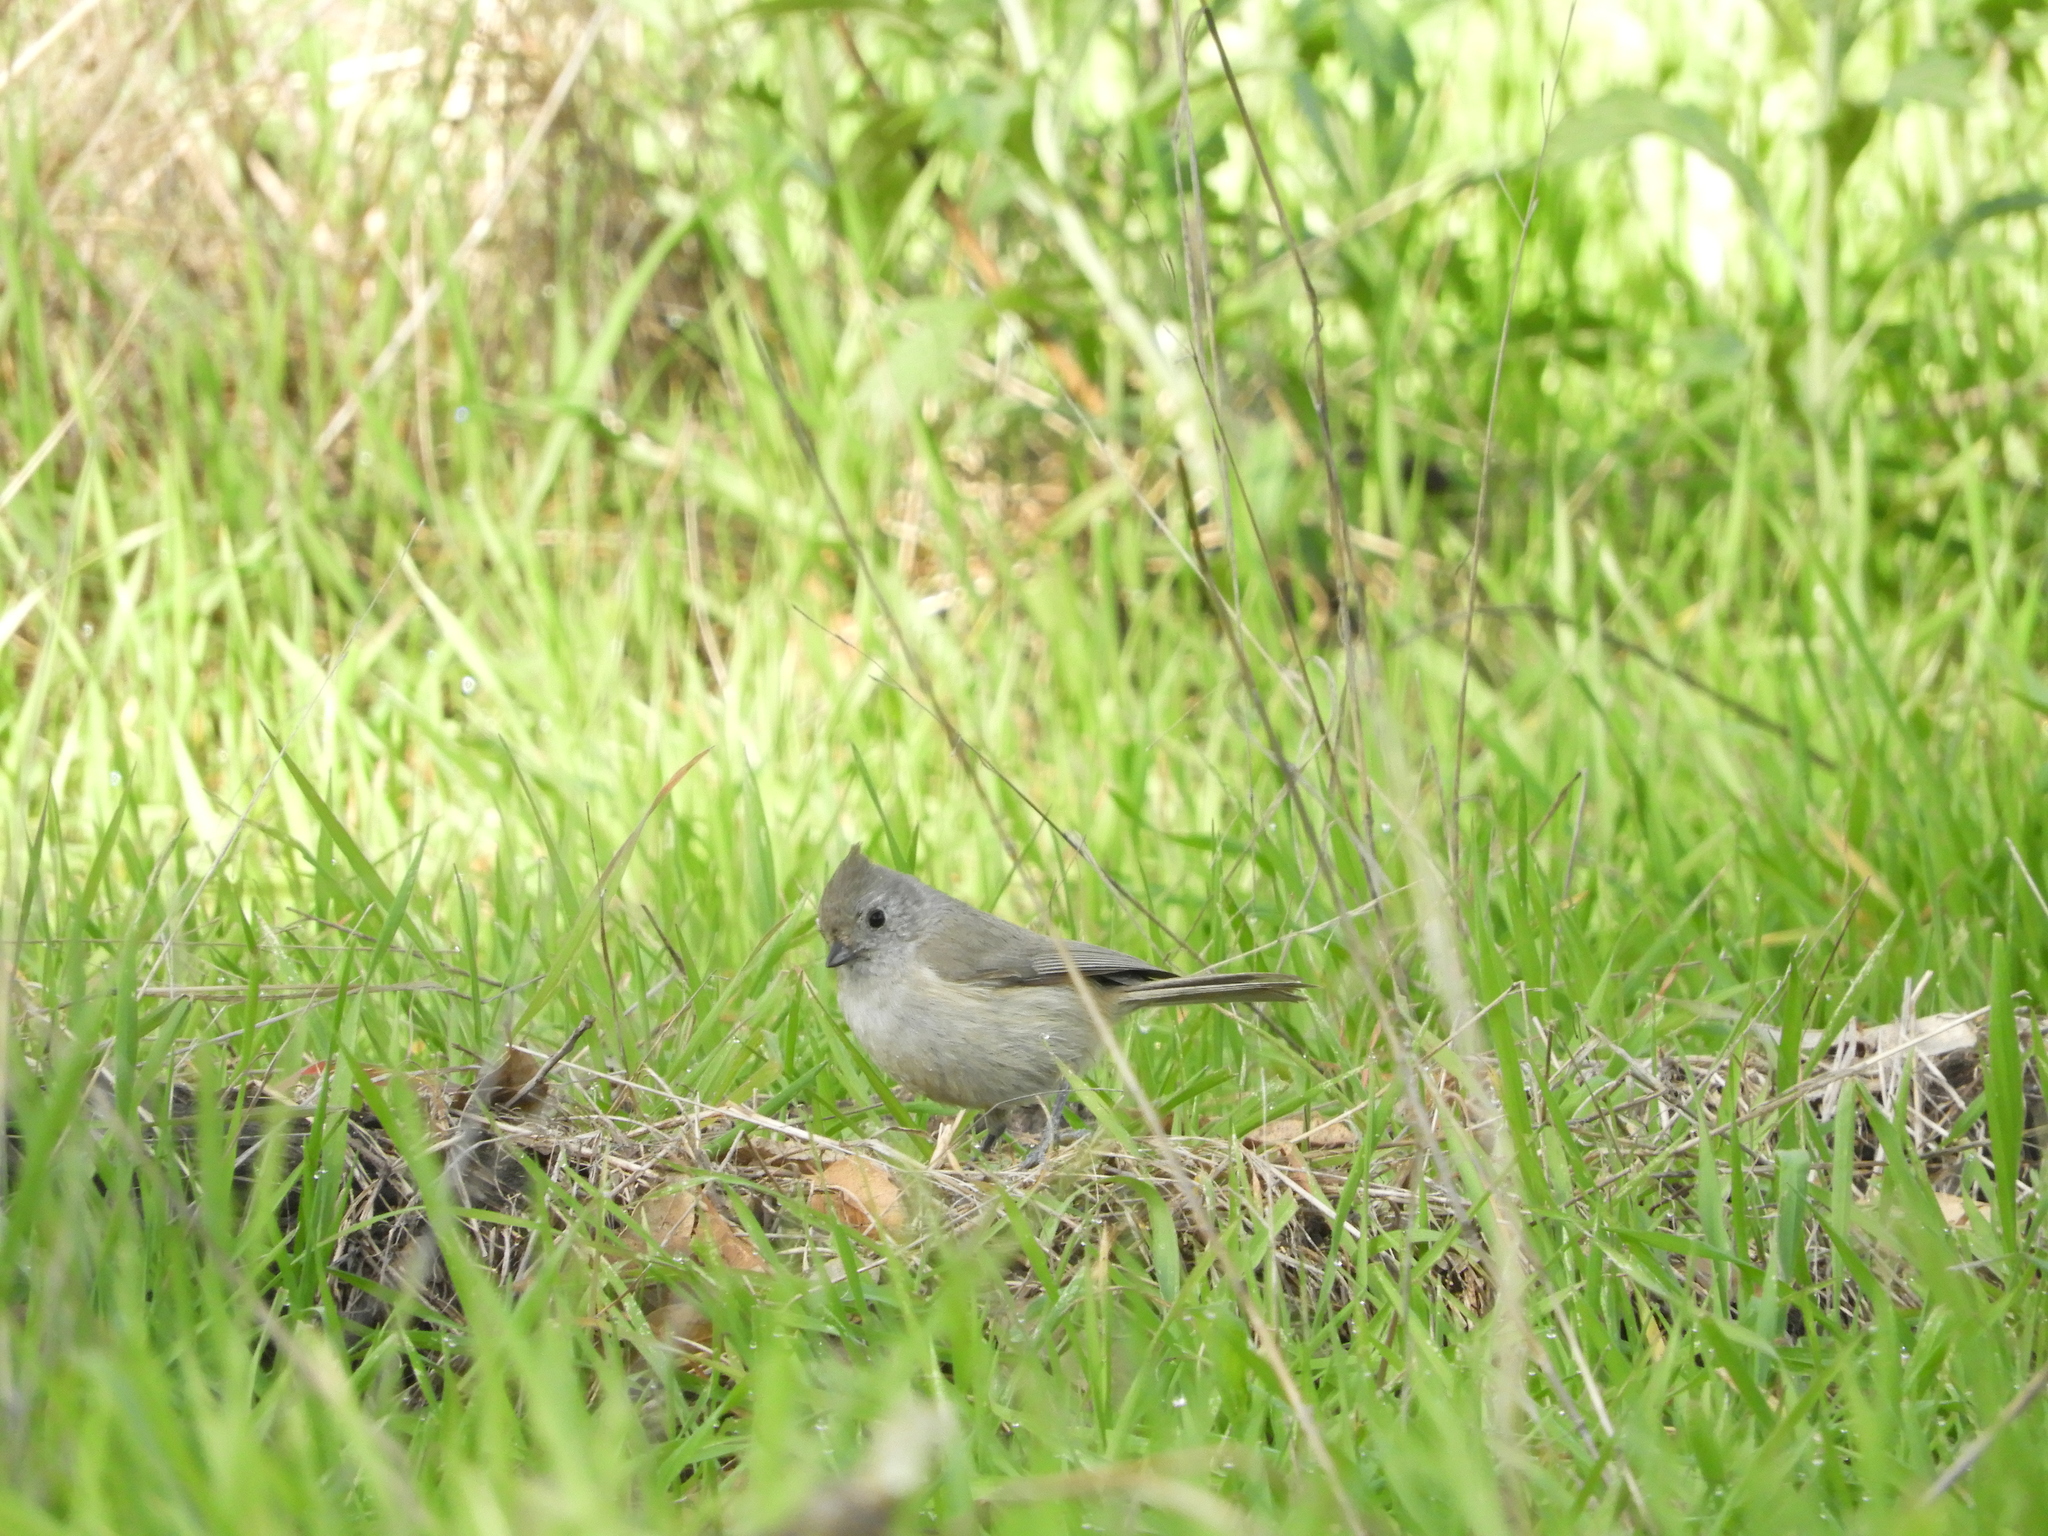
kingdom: Animalia
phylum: Chordata
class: Aves
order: Passeriformes
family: Paridae
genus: Baeolophus
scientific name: Baeolophus inornatus
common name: Oak titmouse
